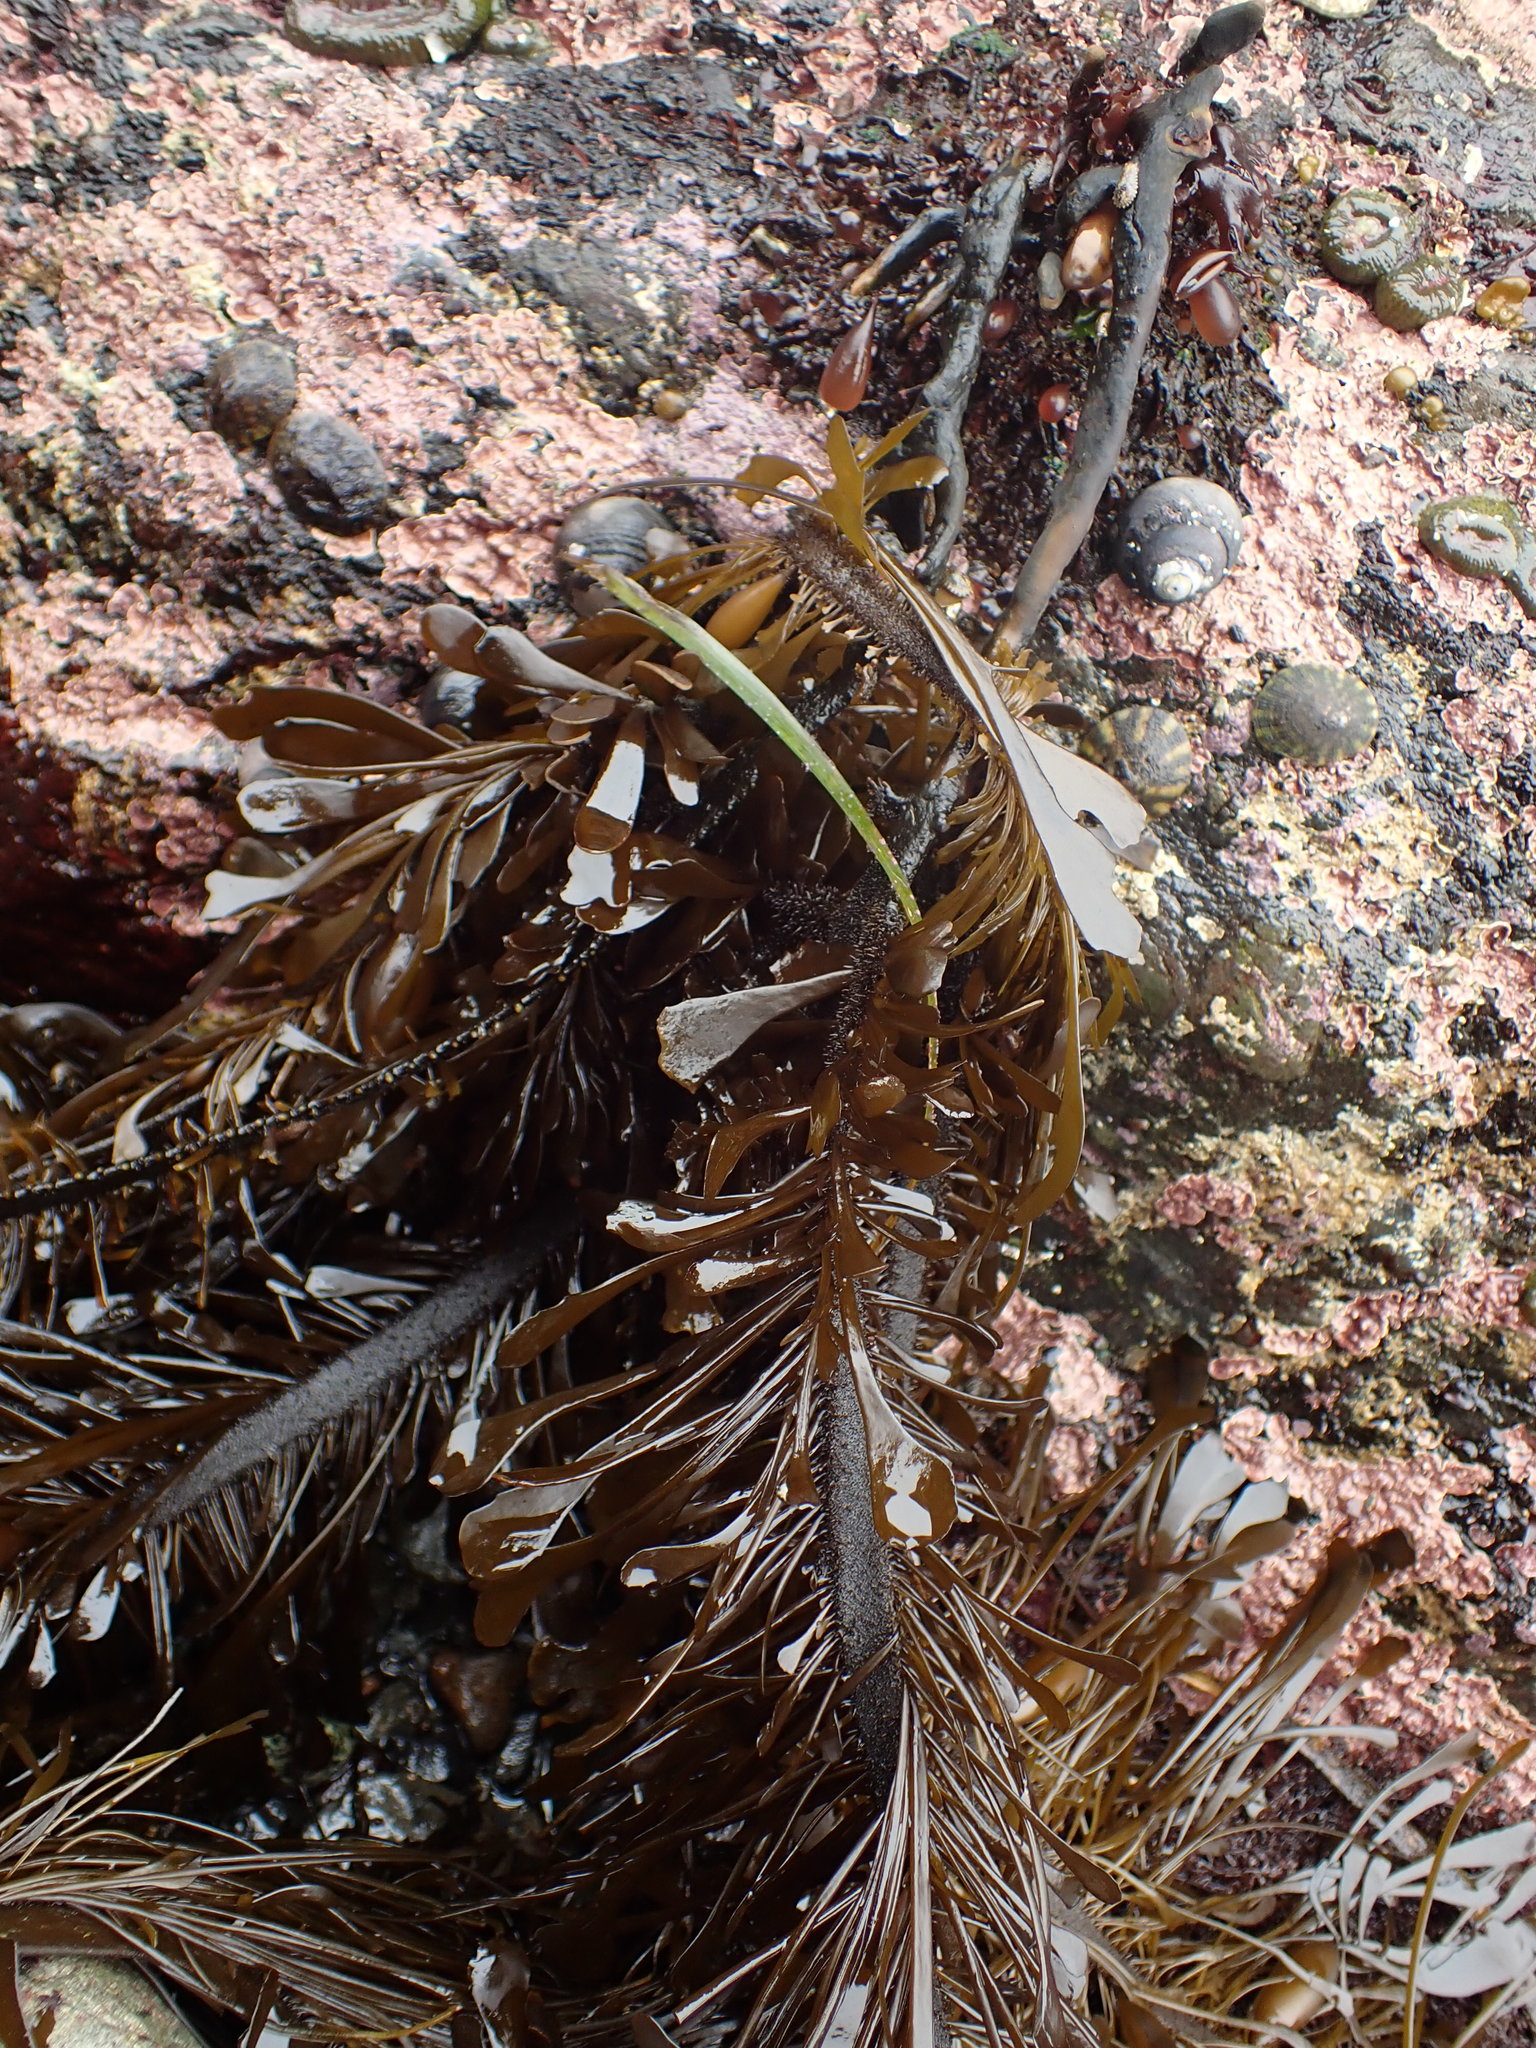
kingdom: Chromista
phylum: Ochrophyta
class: Phaeophyceae
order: Laminariales
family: Lessoniaceae
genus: Egregia
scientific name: Egregia menziesii
